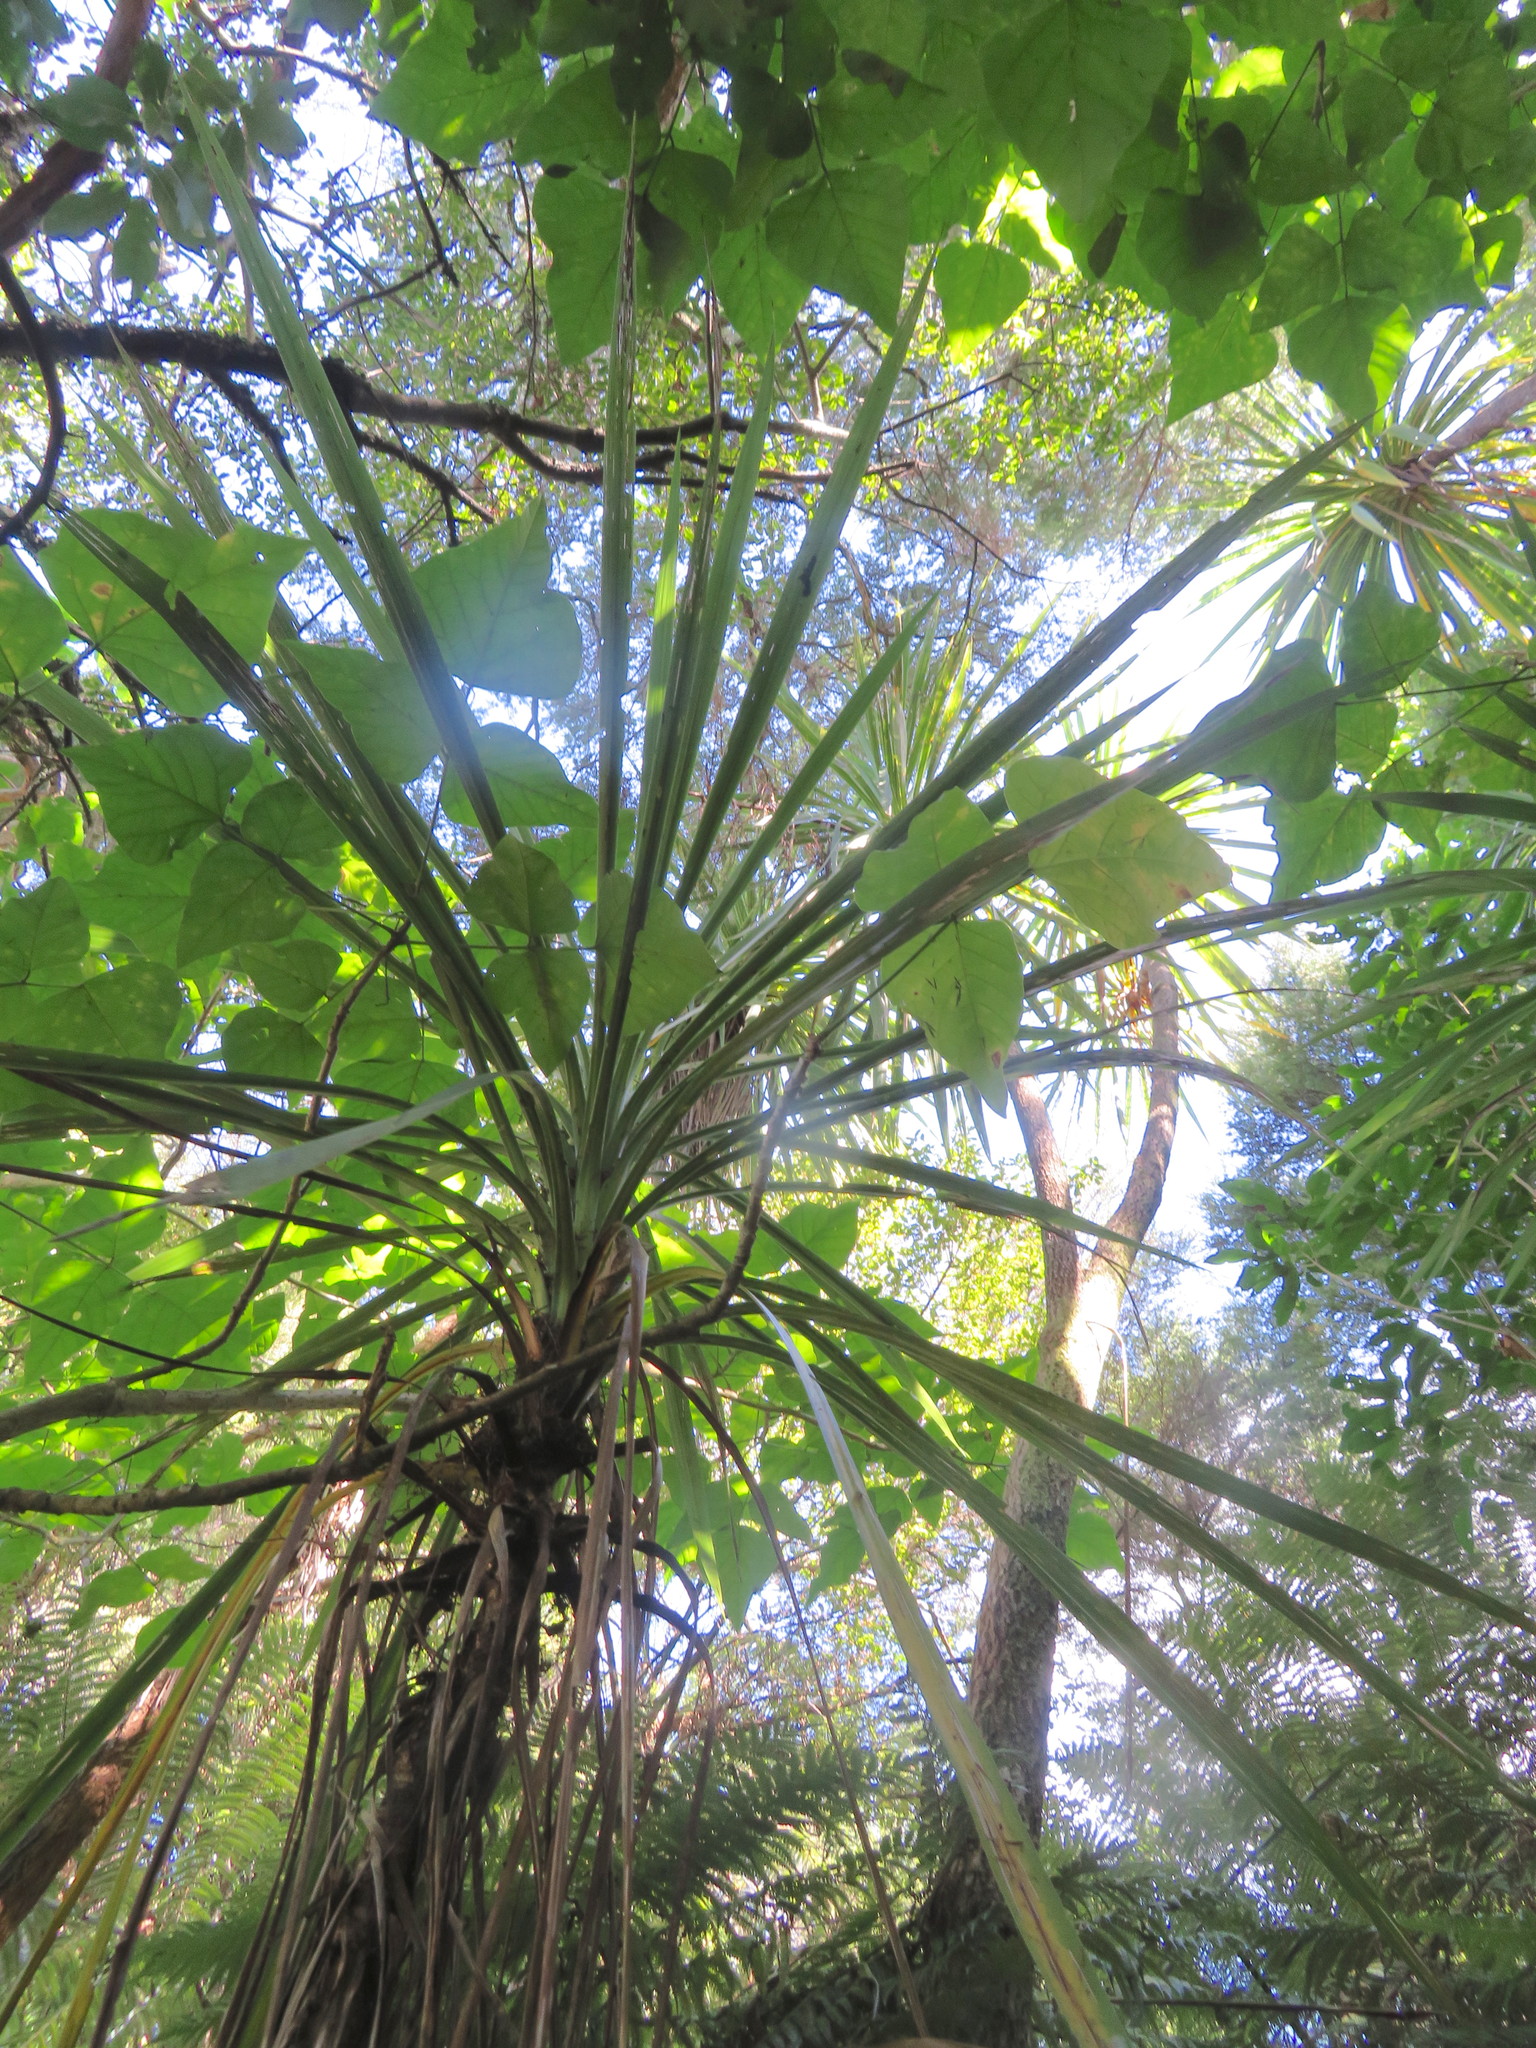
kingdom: Plantae
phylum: Tracheophyta
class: Liliopsida
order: Asparagales
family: Asparagaceae
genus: Cordyline
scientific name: Cordyline australis
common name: Cabbage-palm
